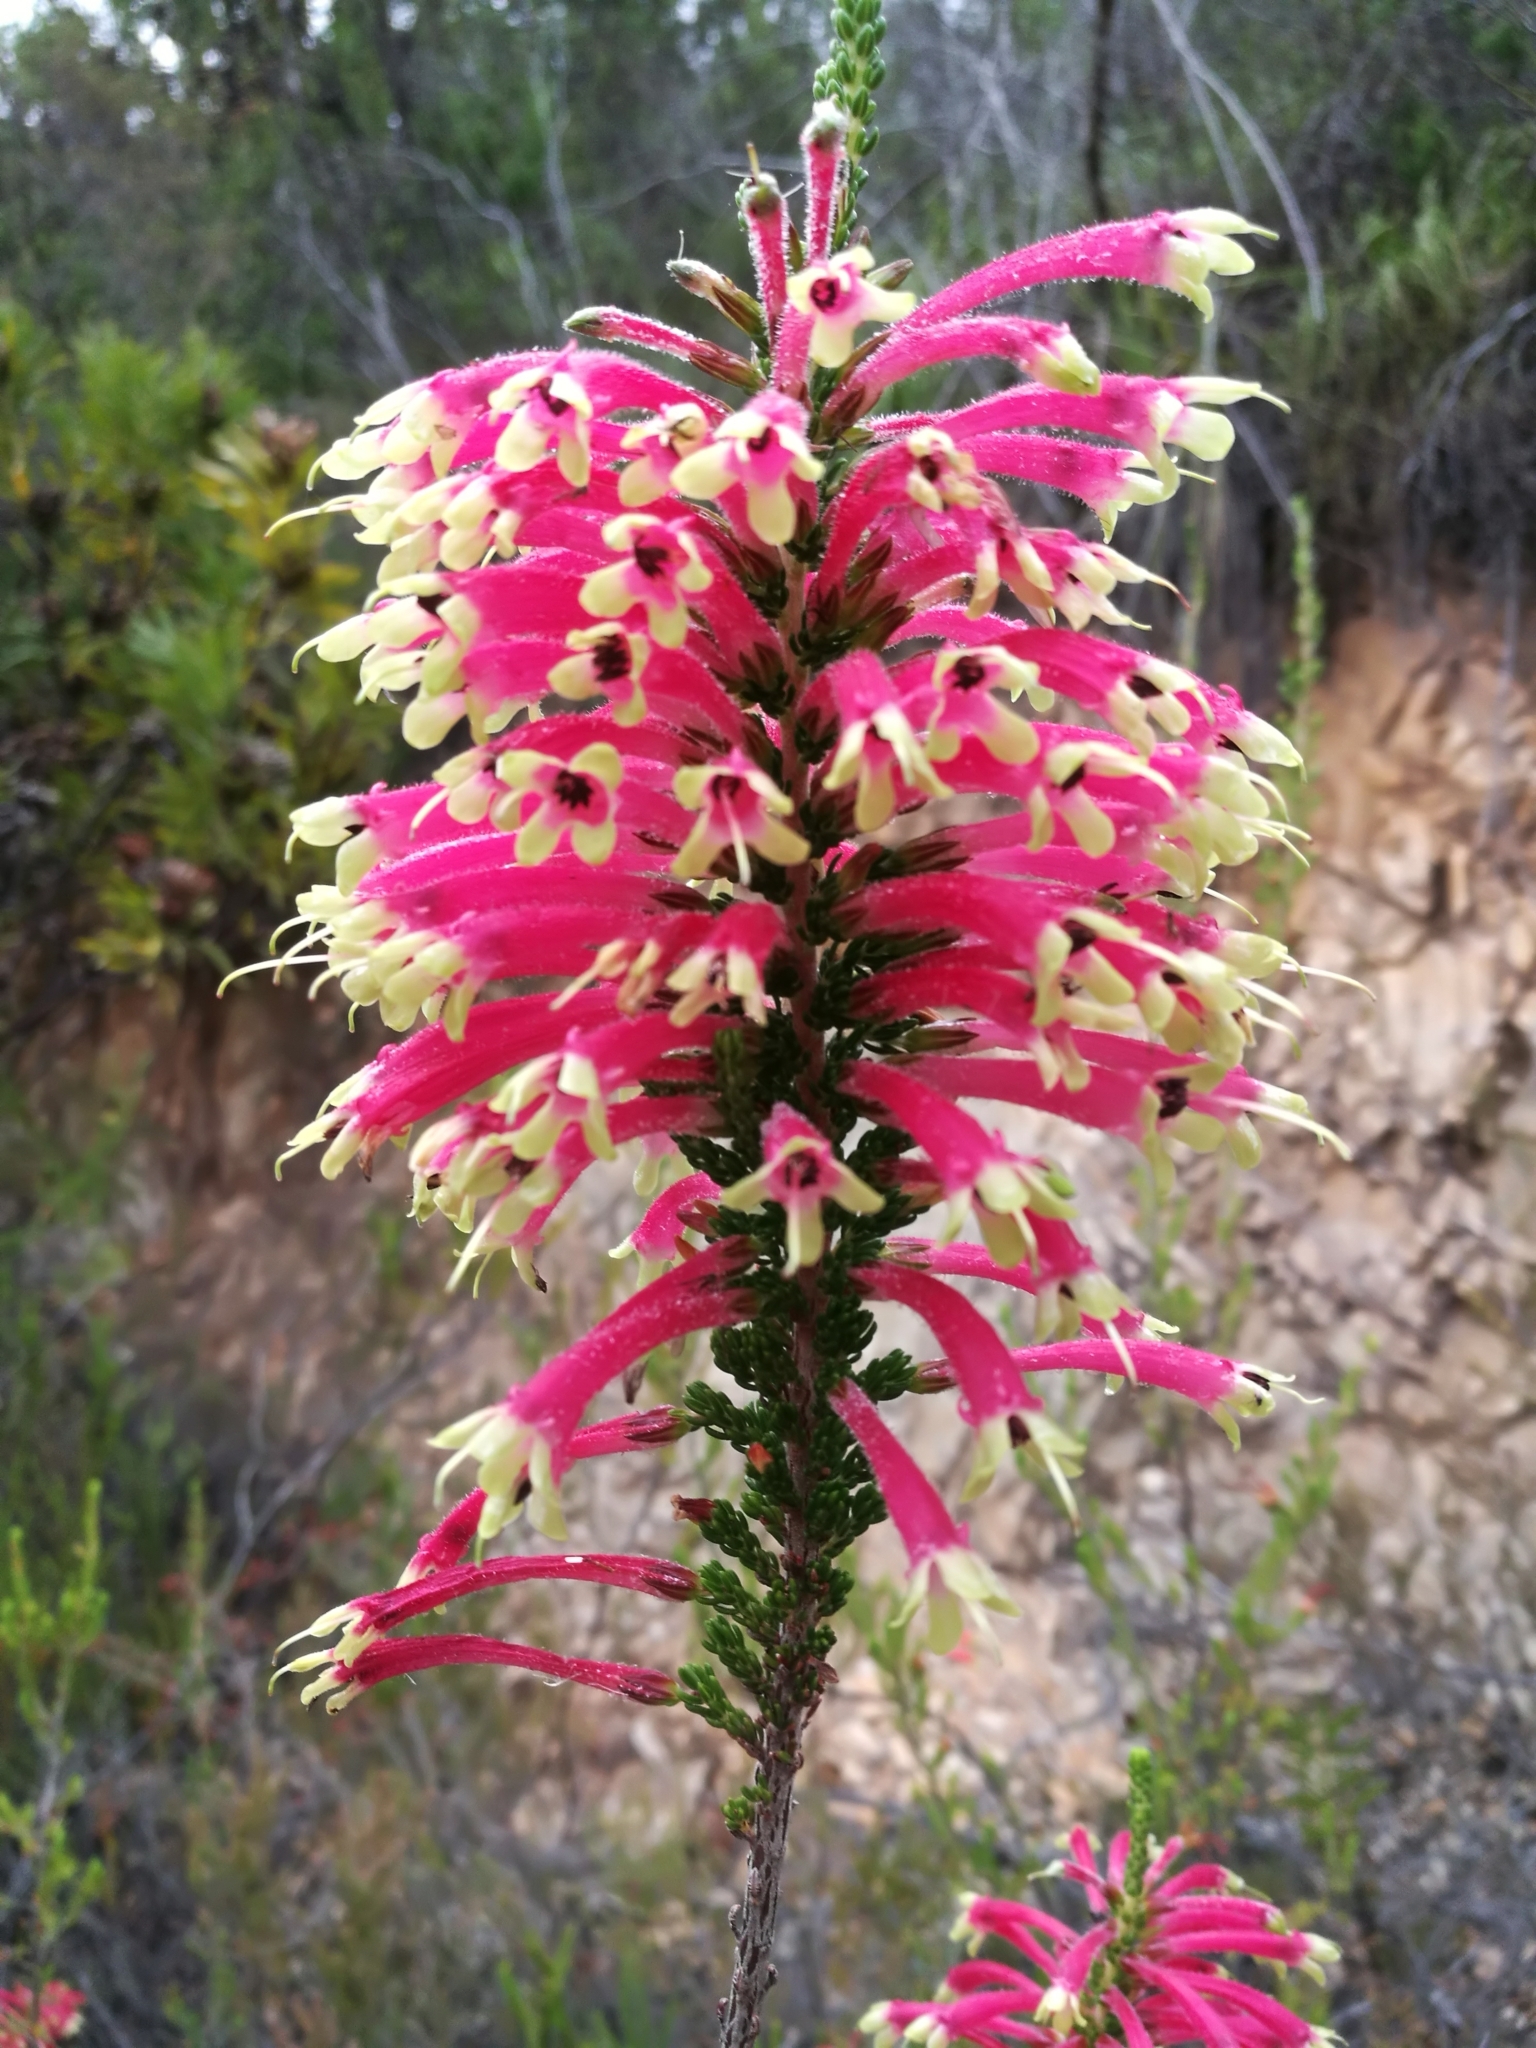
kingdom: Plantae
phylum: Tracheophyta
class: Magnoliopsida
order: Ericales
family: Ericaceae
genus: Erica
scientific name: Erica densifolia
